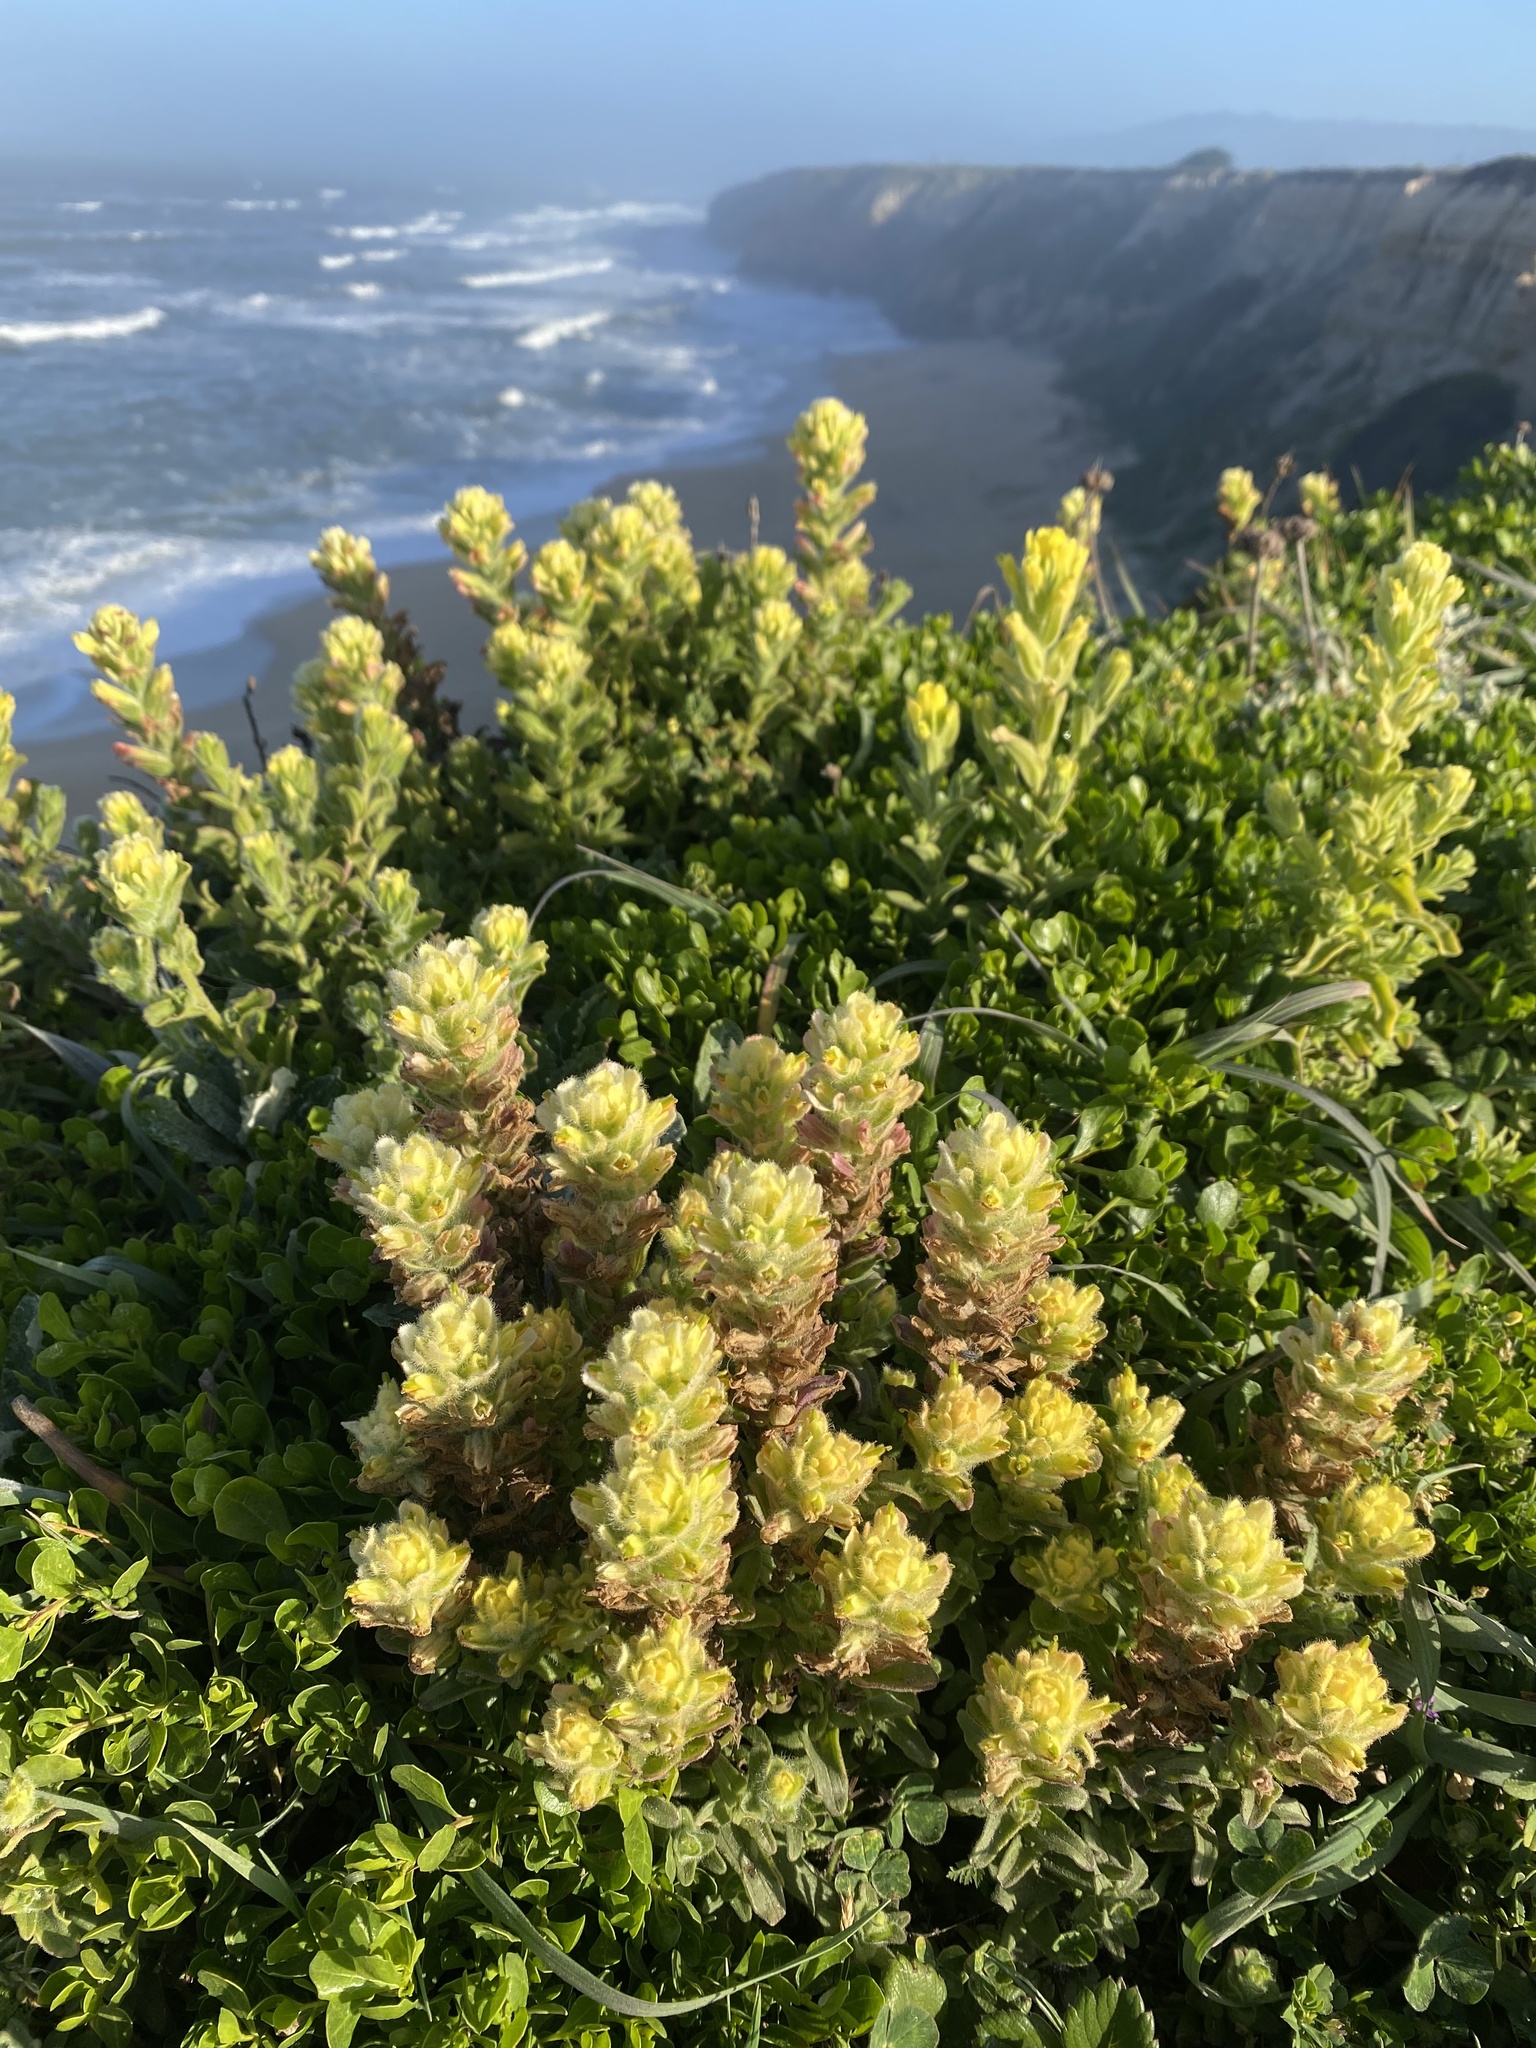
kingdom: Plantae
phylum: Tracheophyta
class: Magnoliopsida
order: Lamiales
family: Orobanchaceae
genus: Castilleja
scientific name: Castilleja wightii
